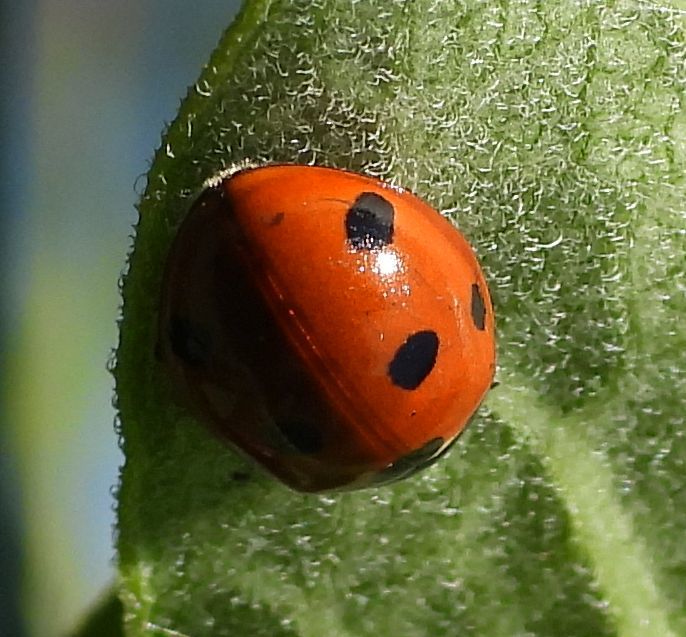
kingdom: Animalia
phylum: Arthropoda
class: Insecta
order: Coleoptera
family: Coccinellidae
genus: Coccinella
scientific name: Coccinella septempunctata
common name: Sevenspotted lady beetle
